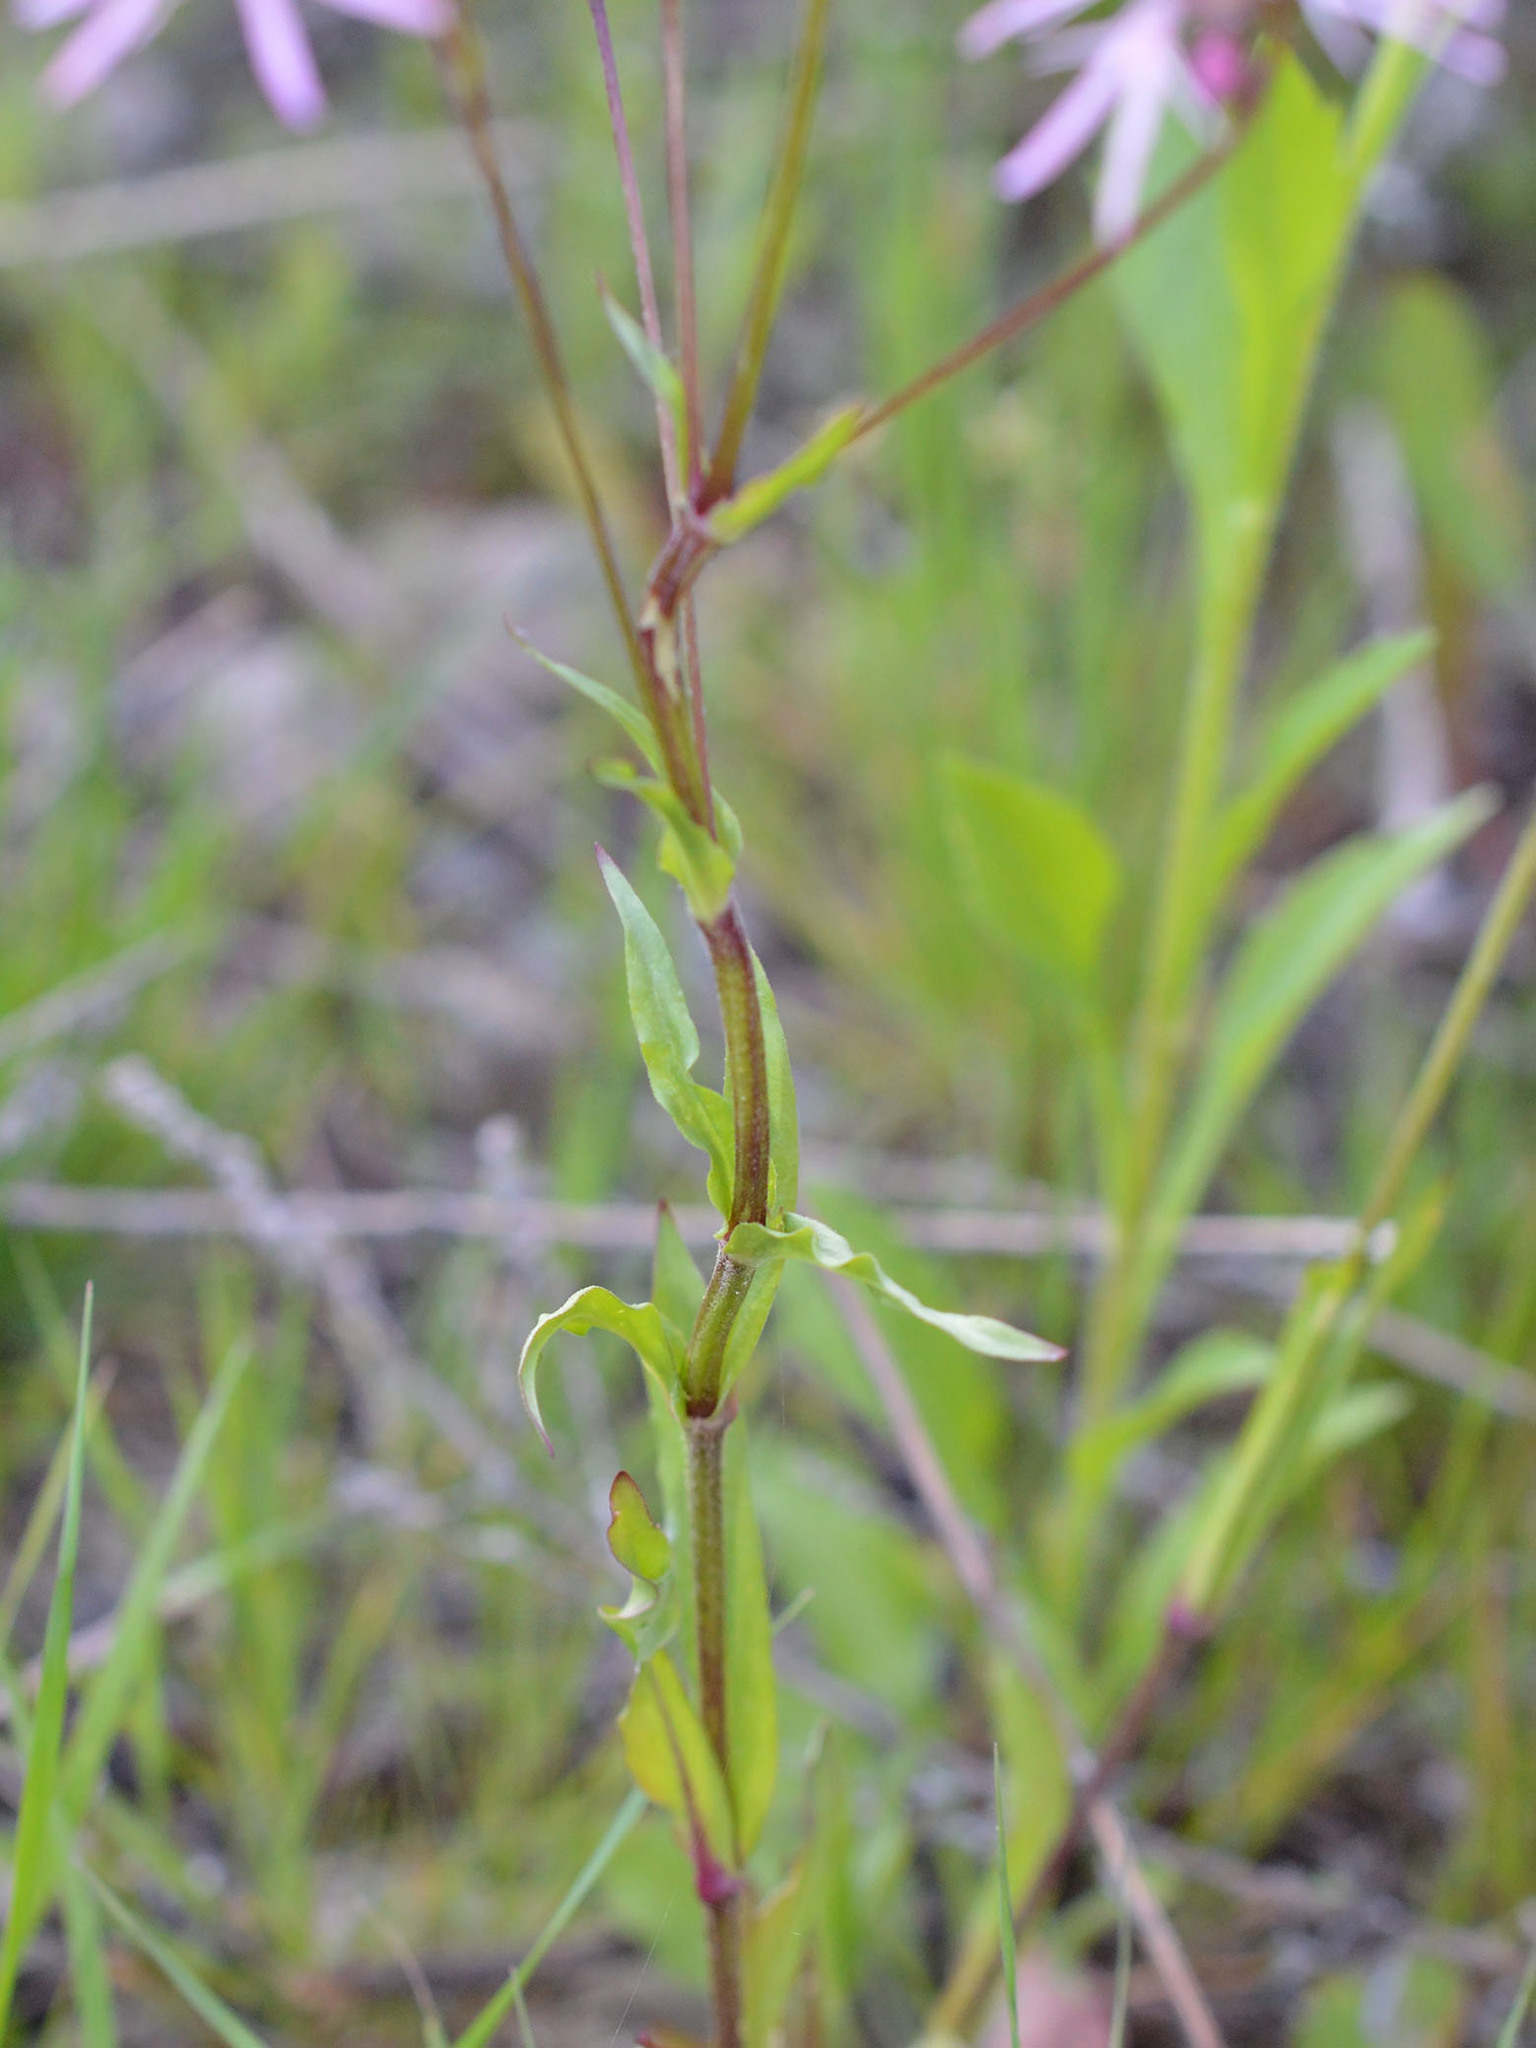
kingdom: Plantae
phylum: Tracheophyta
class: Magnoliopsida
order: Caryophyllales
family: Caryophyllaceae
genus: Silene
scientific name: Silene flos-cuculi
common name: Ragged-robin
